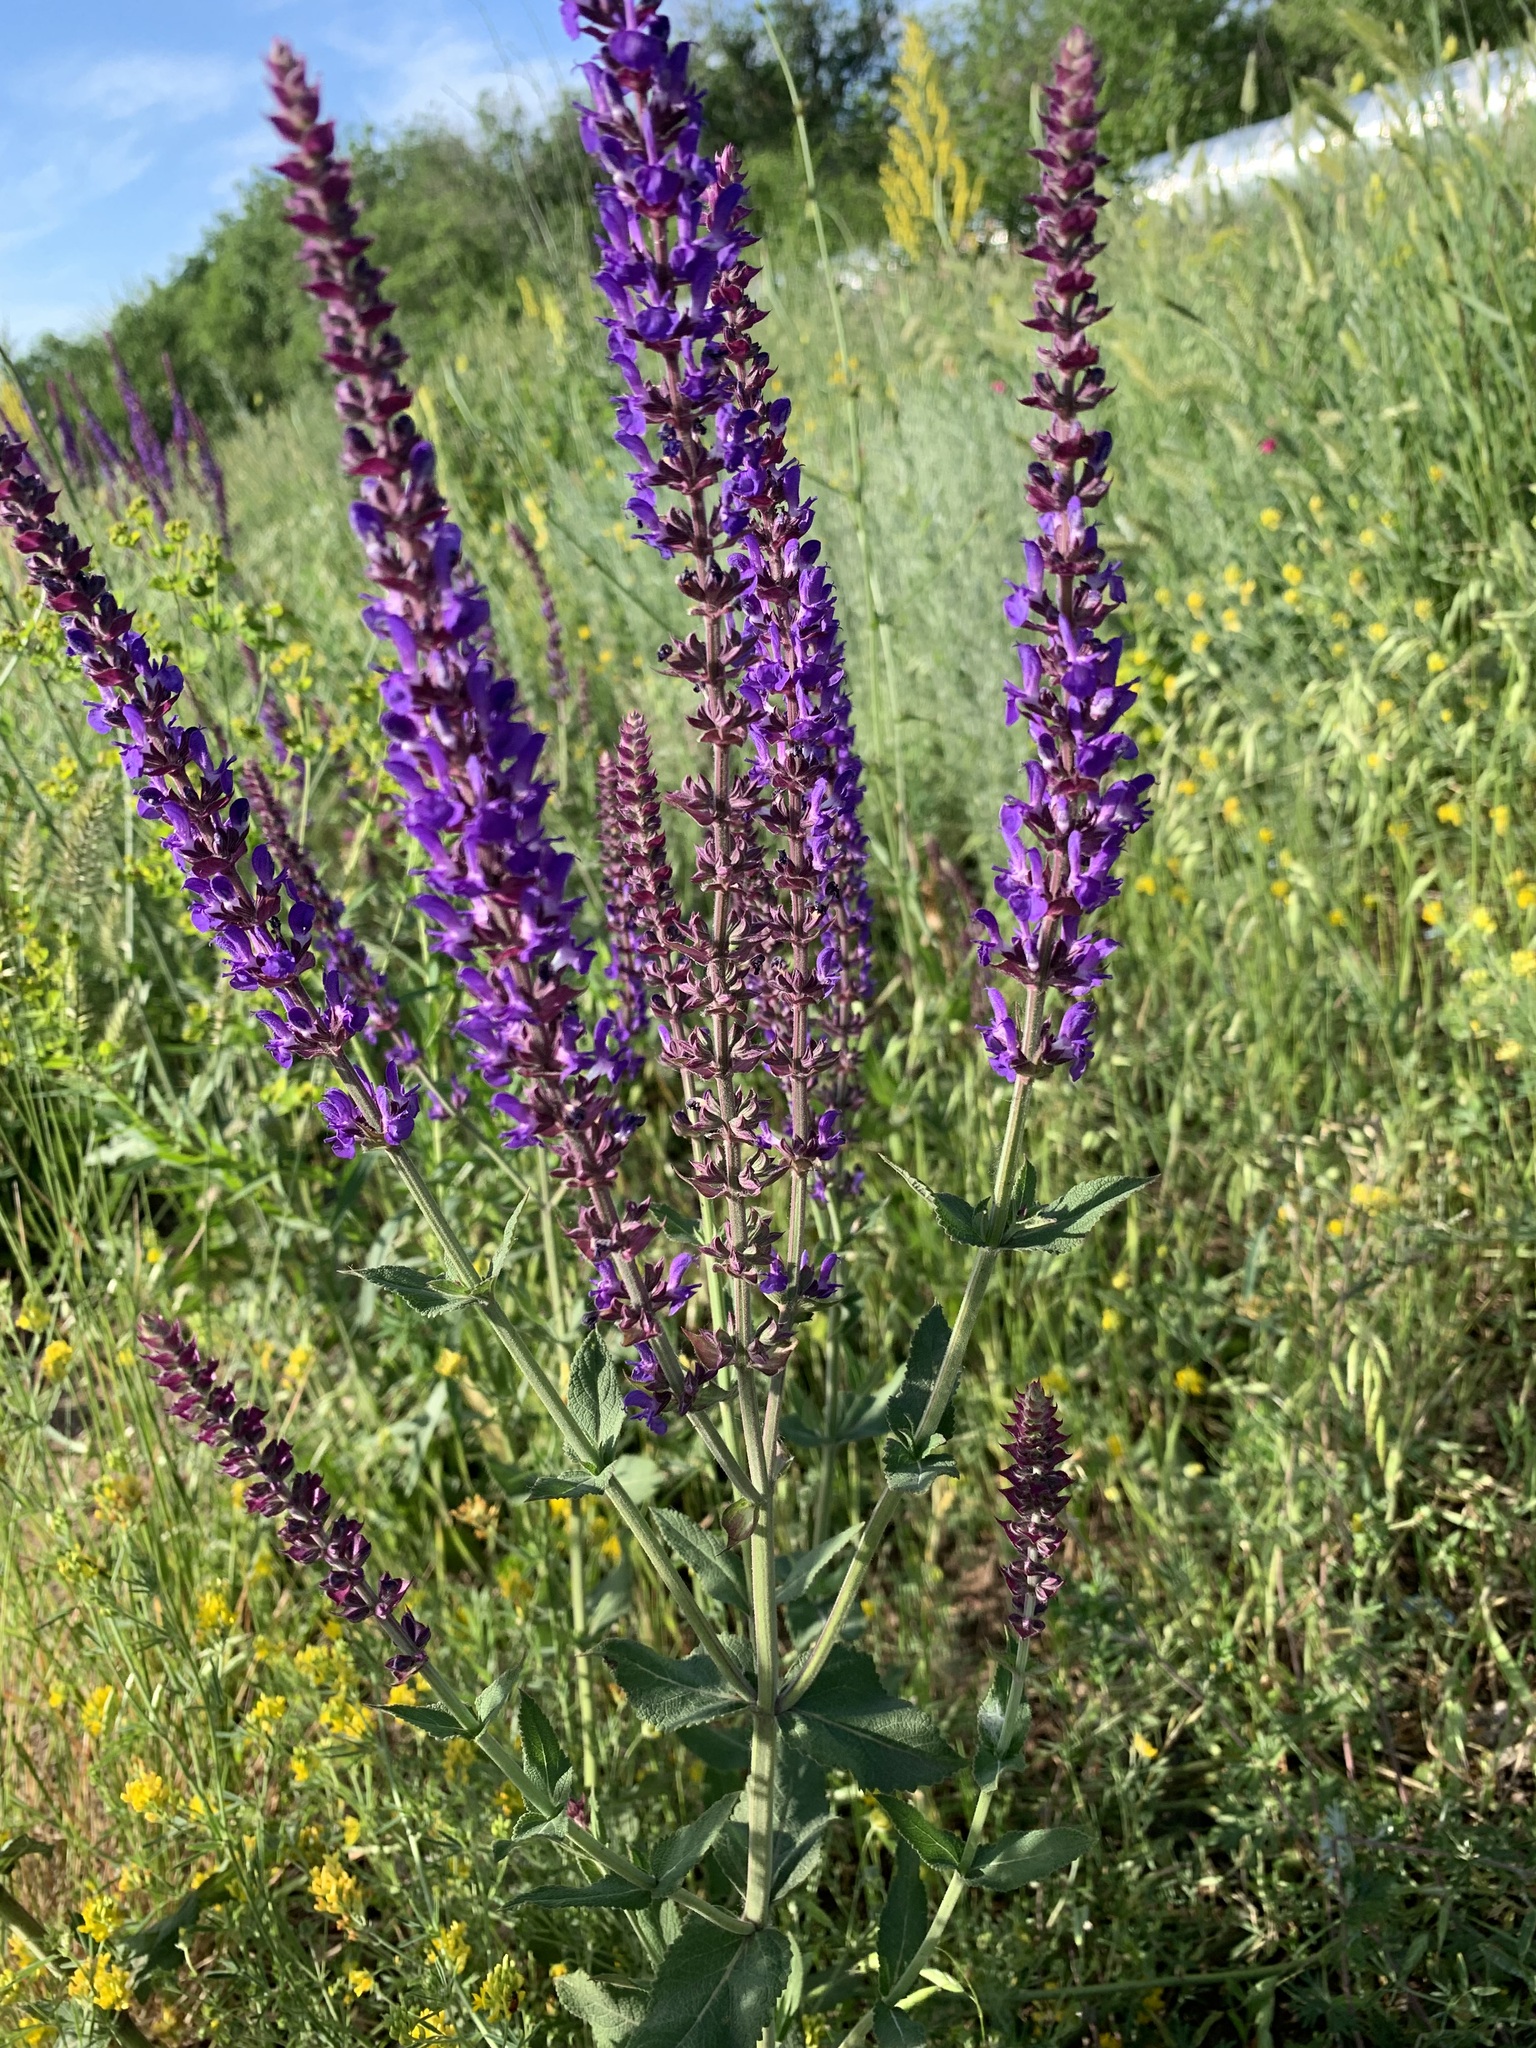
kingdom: Plantae
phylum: Tracheophyta
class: Magnoliopsida
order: Lamiales
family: Lamiaceae
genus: Salvia
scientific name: Salvia nemorosa
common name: Balkan clary
